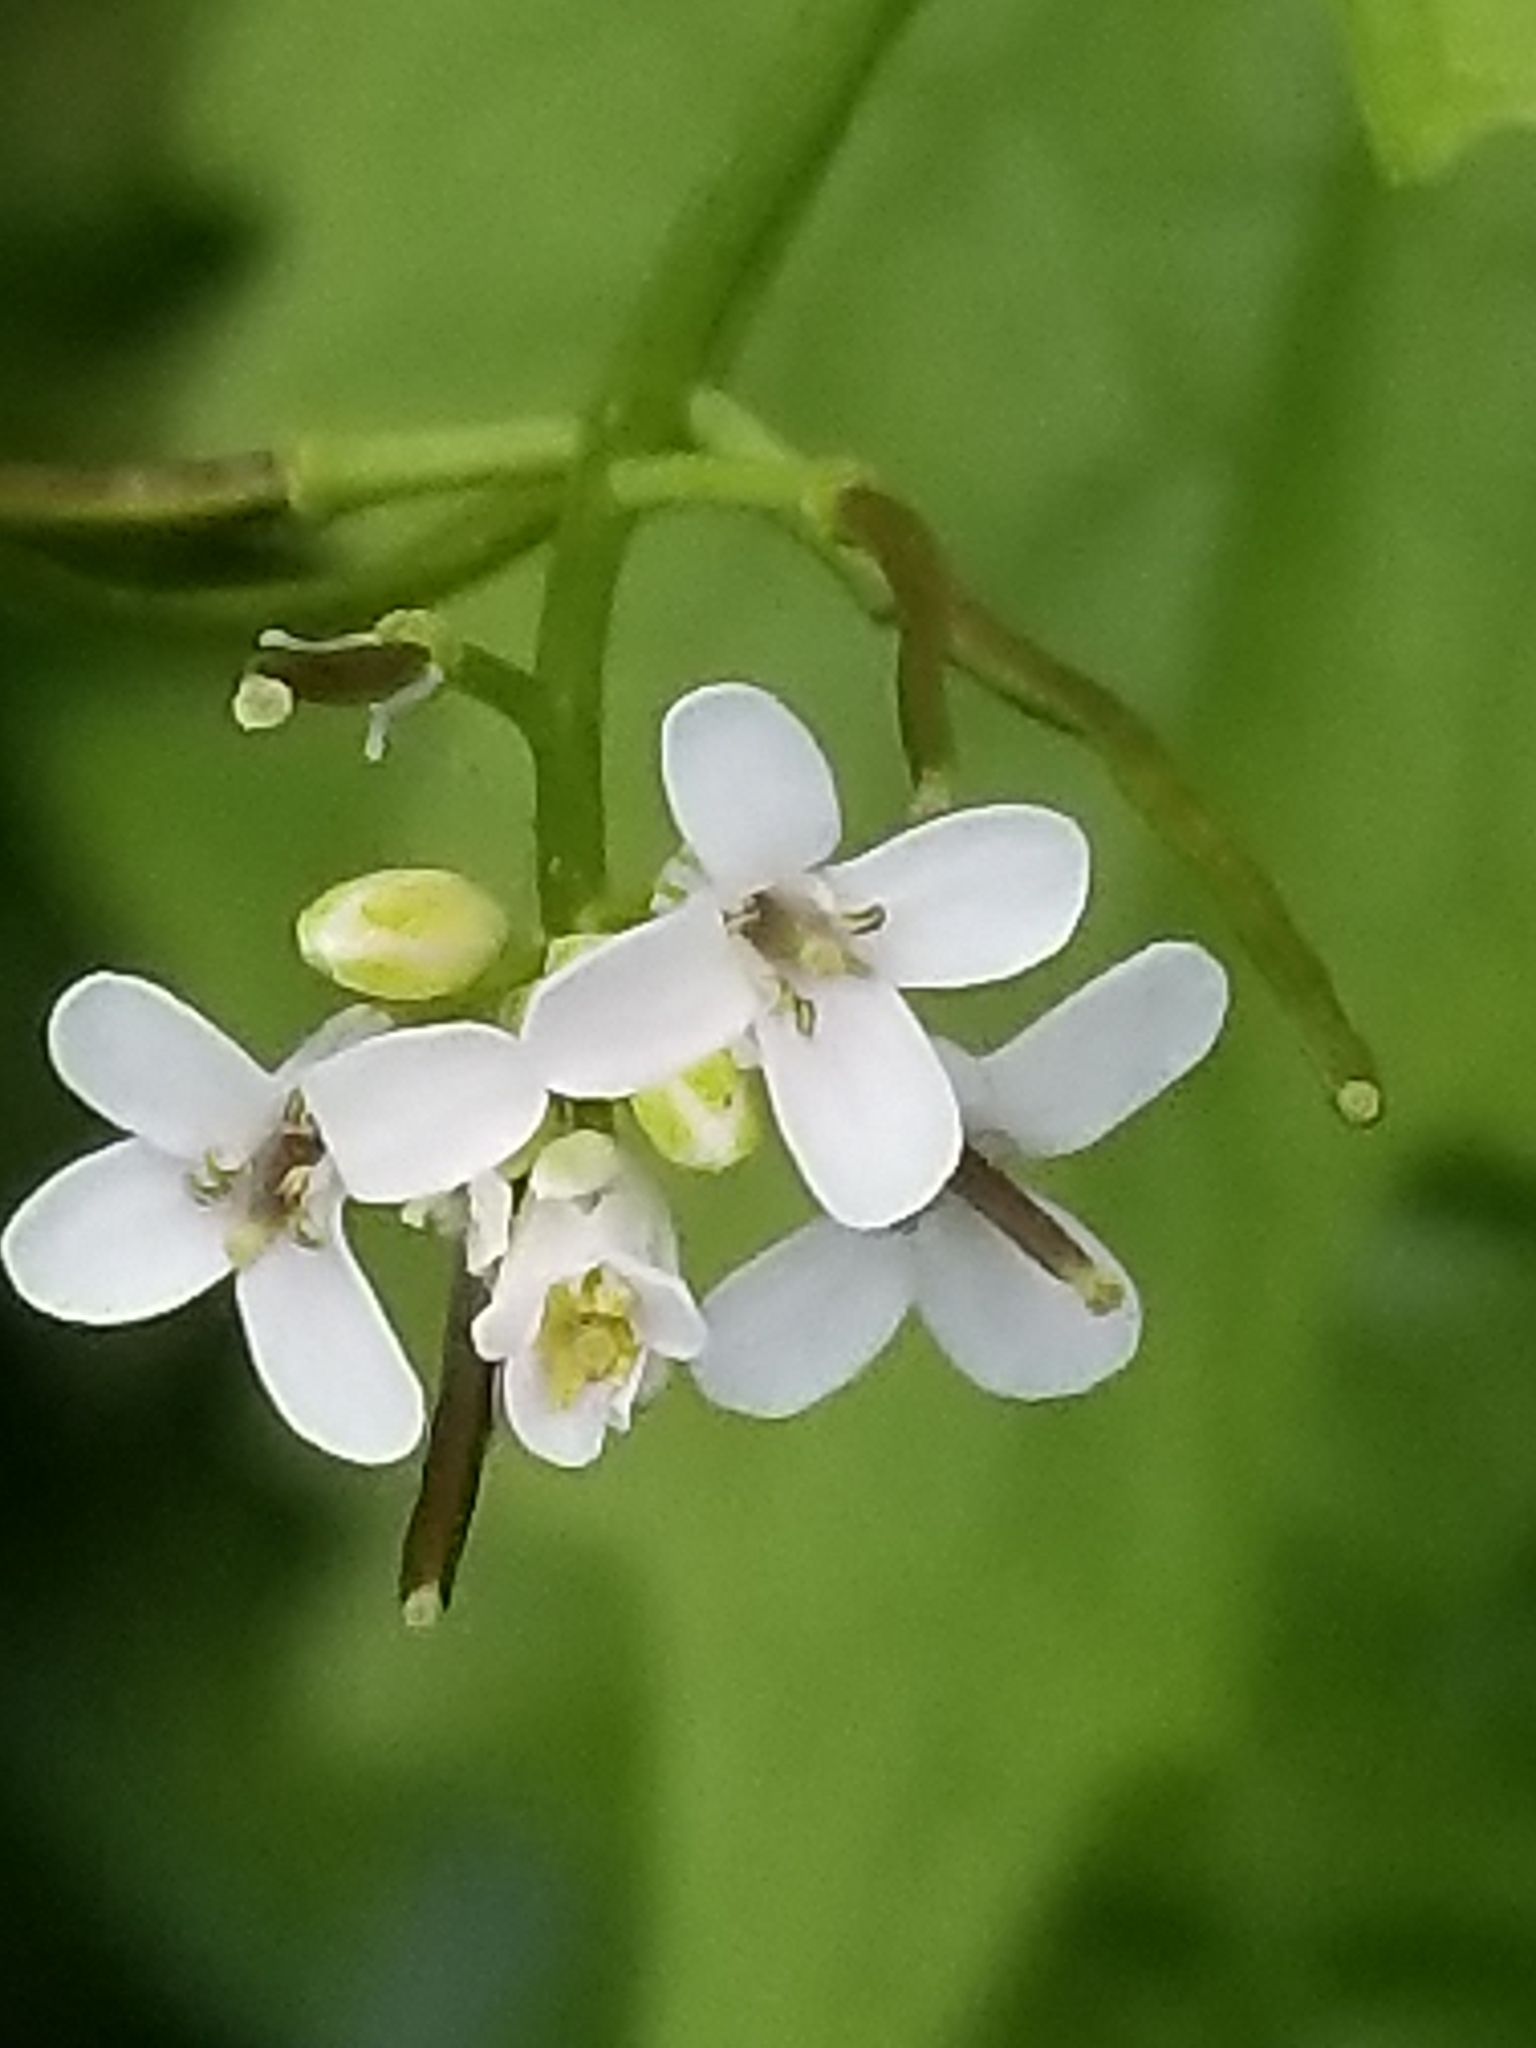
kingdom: Plantae
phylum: Tracheophyta
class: Magnoliopsida
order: Brassicales
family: Brassicaceae
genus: Alliaria
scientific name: Alliaria petiolata
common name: Garlic mustard
